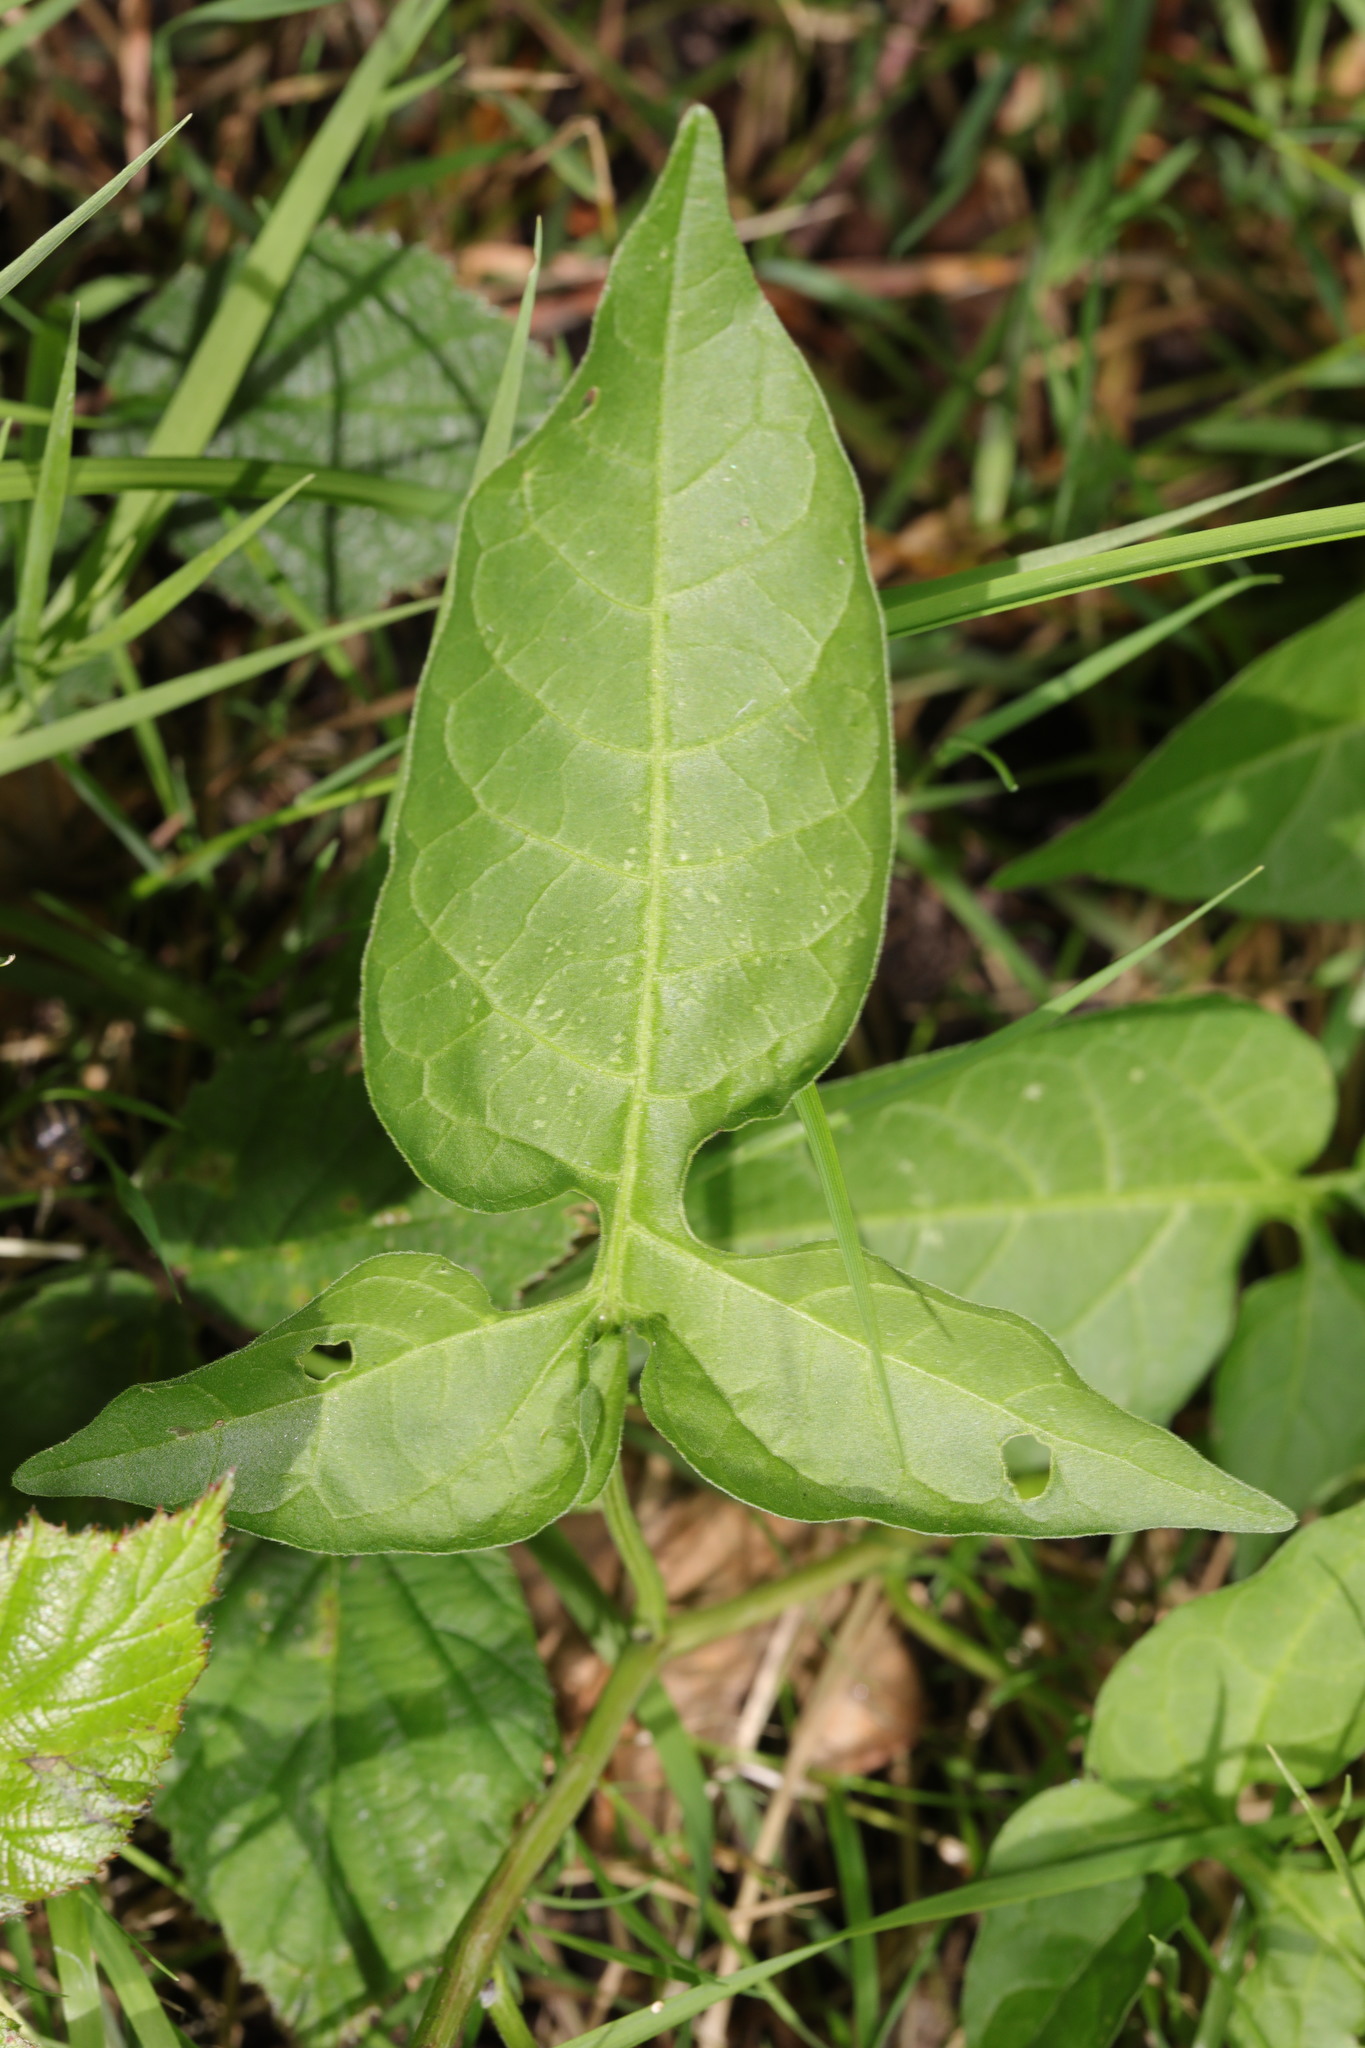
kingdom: Plantae
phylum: Tracheophyta
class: Magnoliopsida
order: Solanales
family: Solanaceae
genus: Solanum
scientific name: Solanum dulcamara
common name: Climbing nightshade
